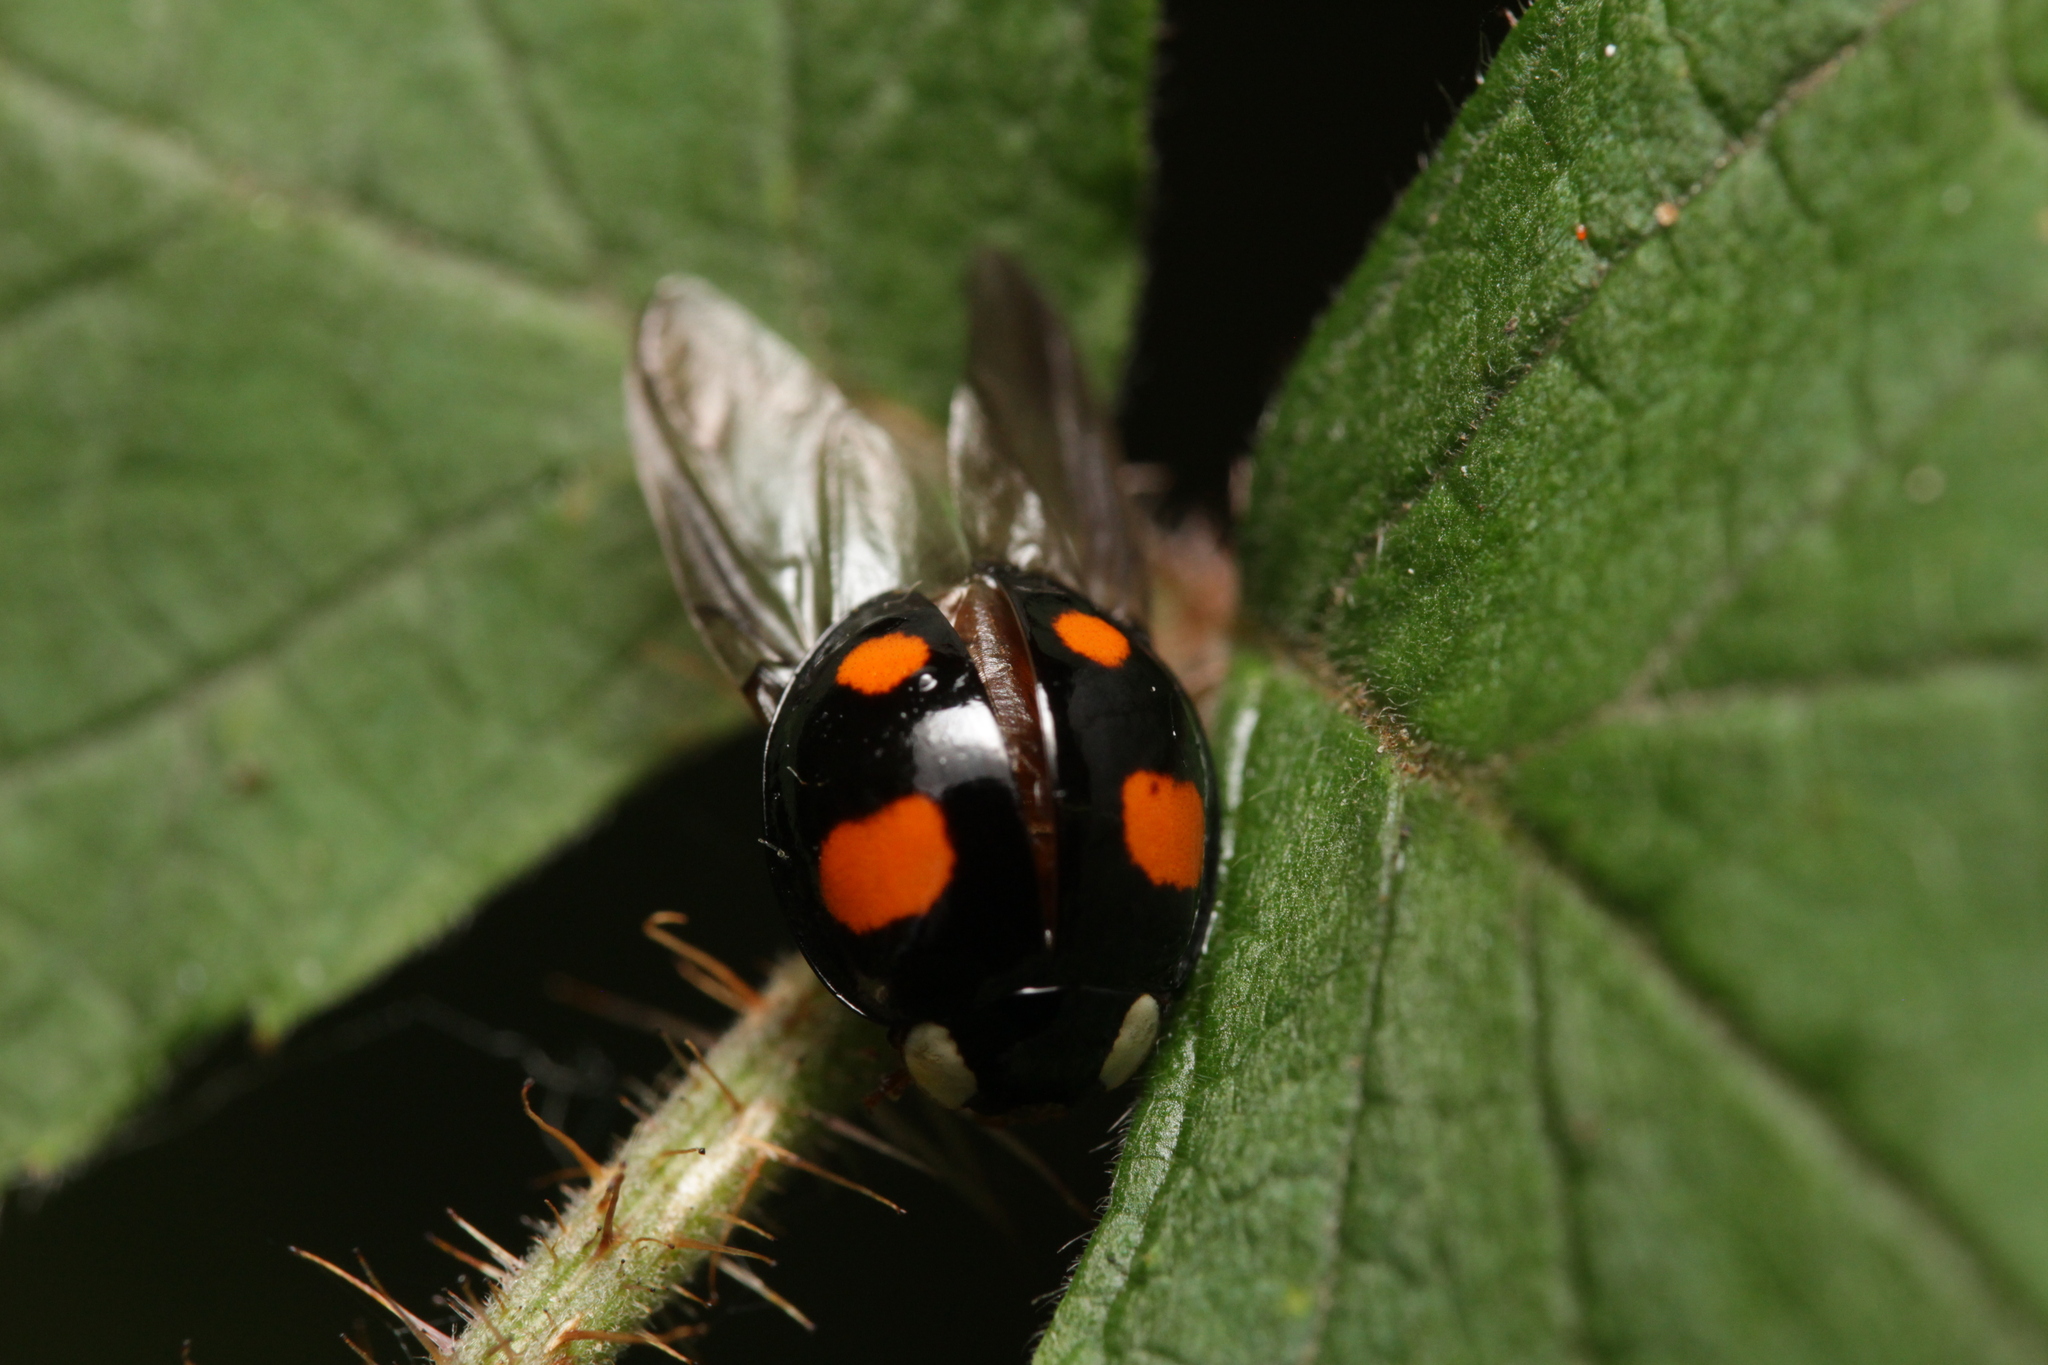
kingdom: Animalia
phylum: Arthropoda
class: Insecta
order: Coleoptera
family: Coccinellidae
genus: Harmonia
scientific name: Harmonia axyridis
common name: Harlequin ladybird
